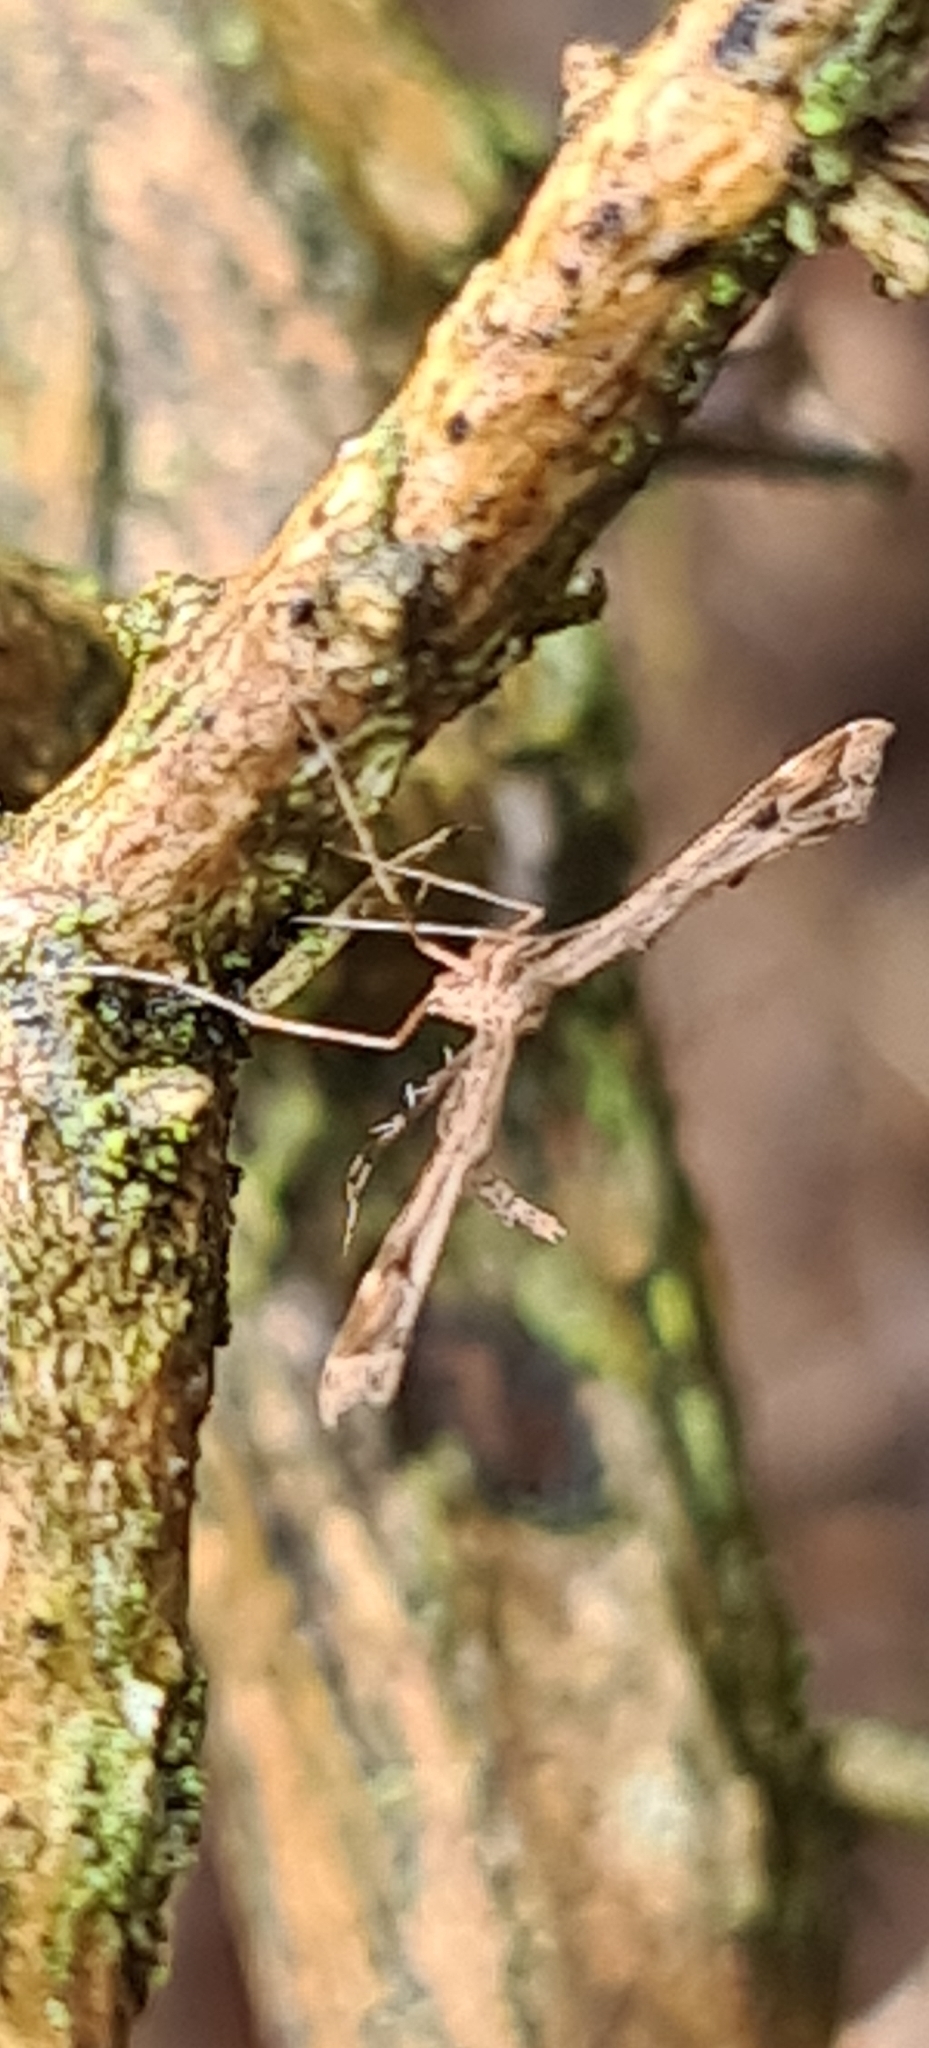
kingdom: Animalia
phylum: Arthropoda
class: Insecta
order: Lepidoptera
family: Pterophoridae
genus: Amblyptilia
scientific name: Amblyptilia acanthadactyla
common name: Beautiful plume
